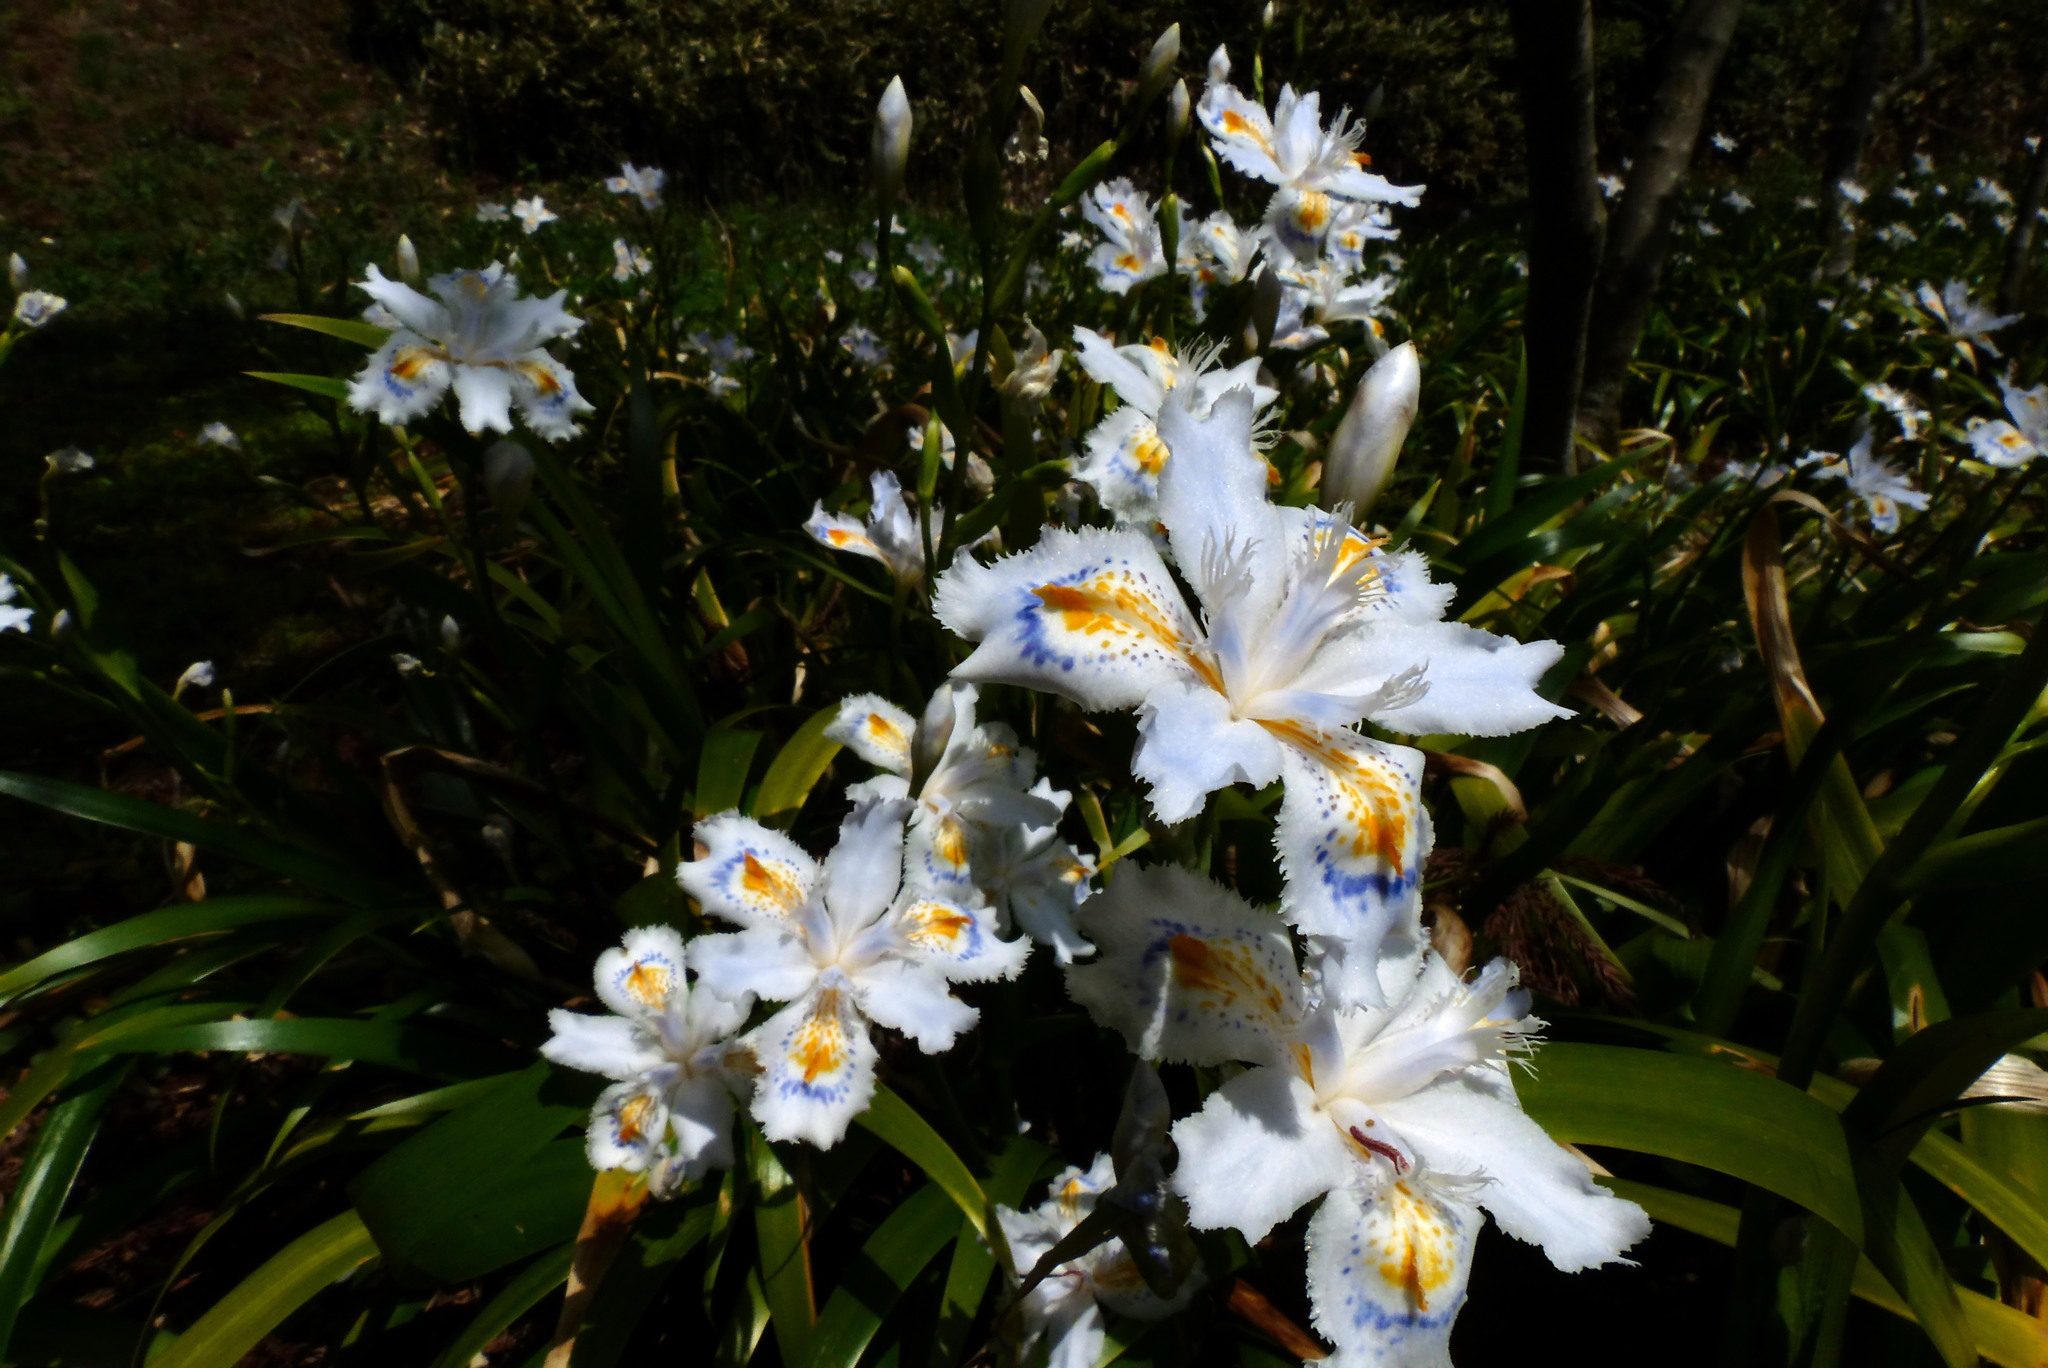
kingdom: Plantae
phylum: Tracheophyta
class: Liliopsida
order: Asparagales
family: Iridaceae
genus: Iris
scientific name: Iris japonica
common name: Butterfly-flower
